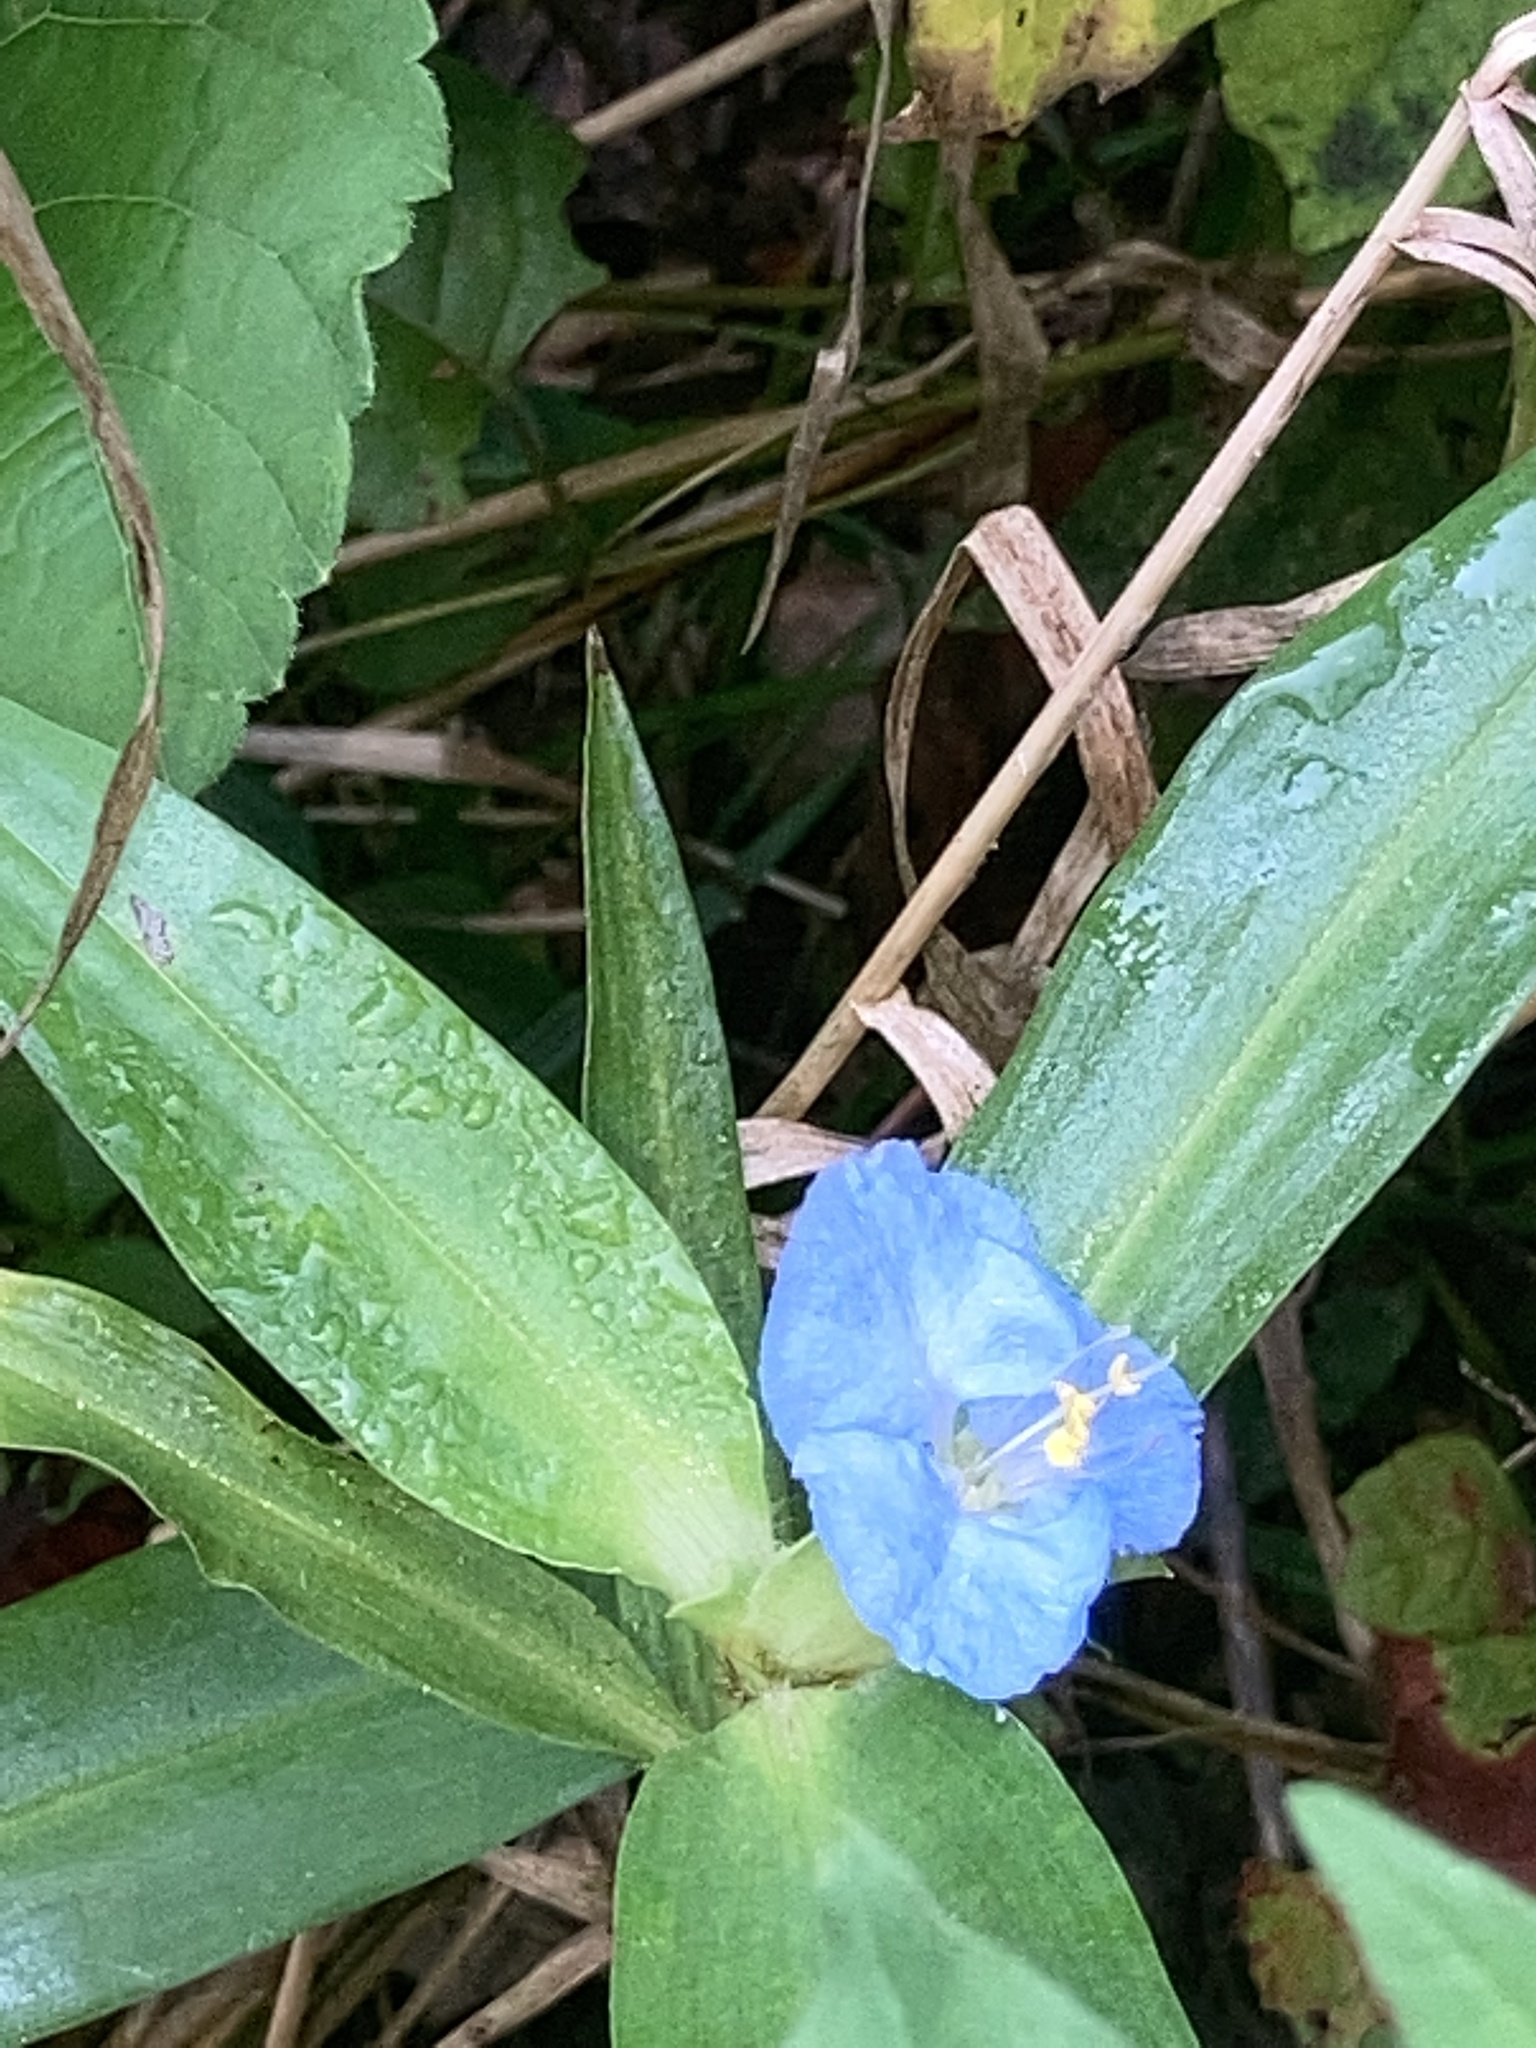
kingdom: Plantae
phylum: Tracheophyta
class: Liliopsida
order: Commelinales
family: Commelinaceae
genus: Commelina
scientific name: Commelina virginica
